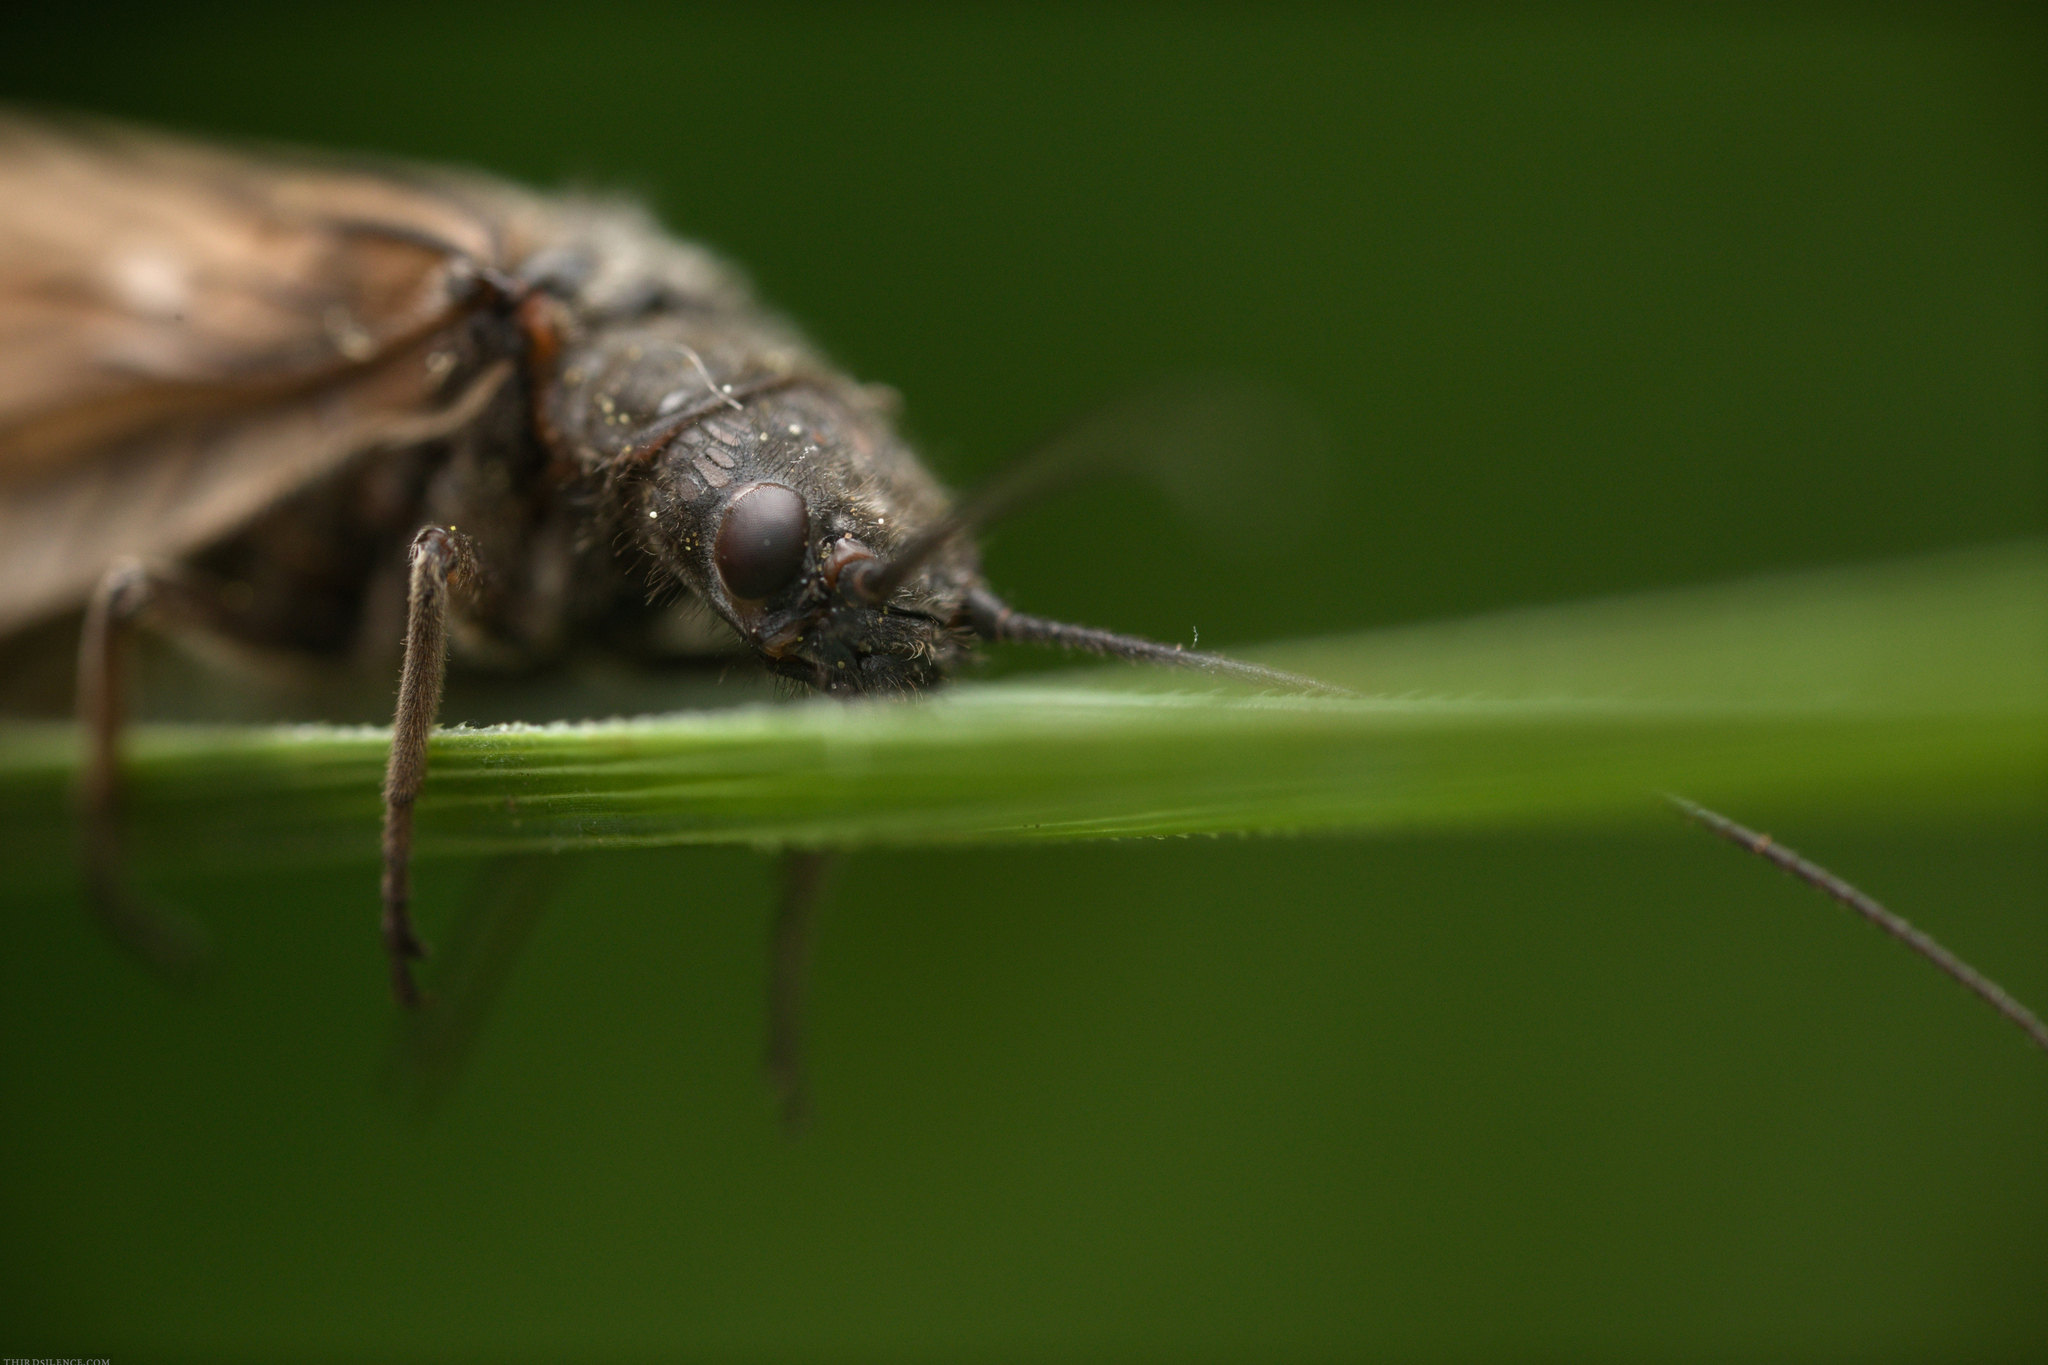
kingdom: Animalia
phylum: Arthropoda
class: Insecta
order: Megaloptera
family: Sialidae
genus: Sialis
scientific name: Sialis
